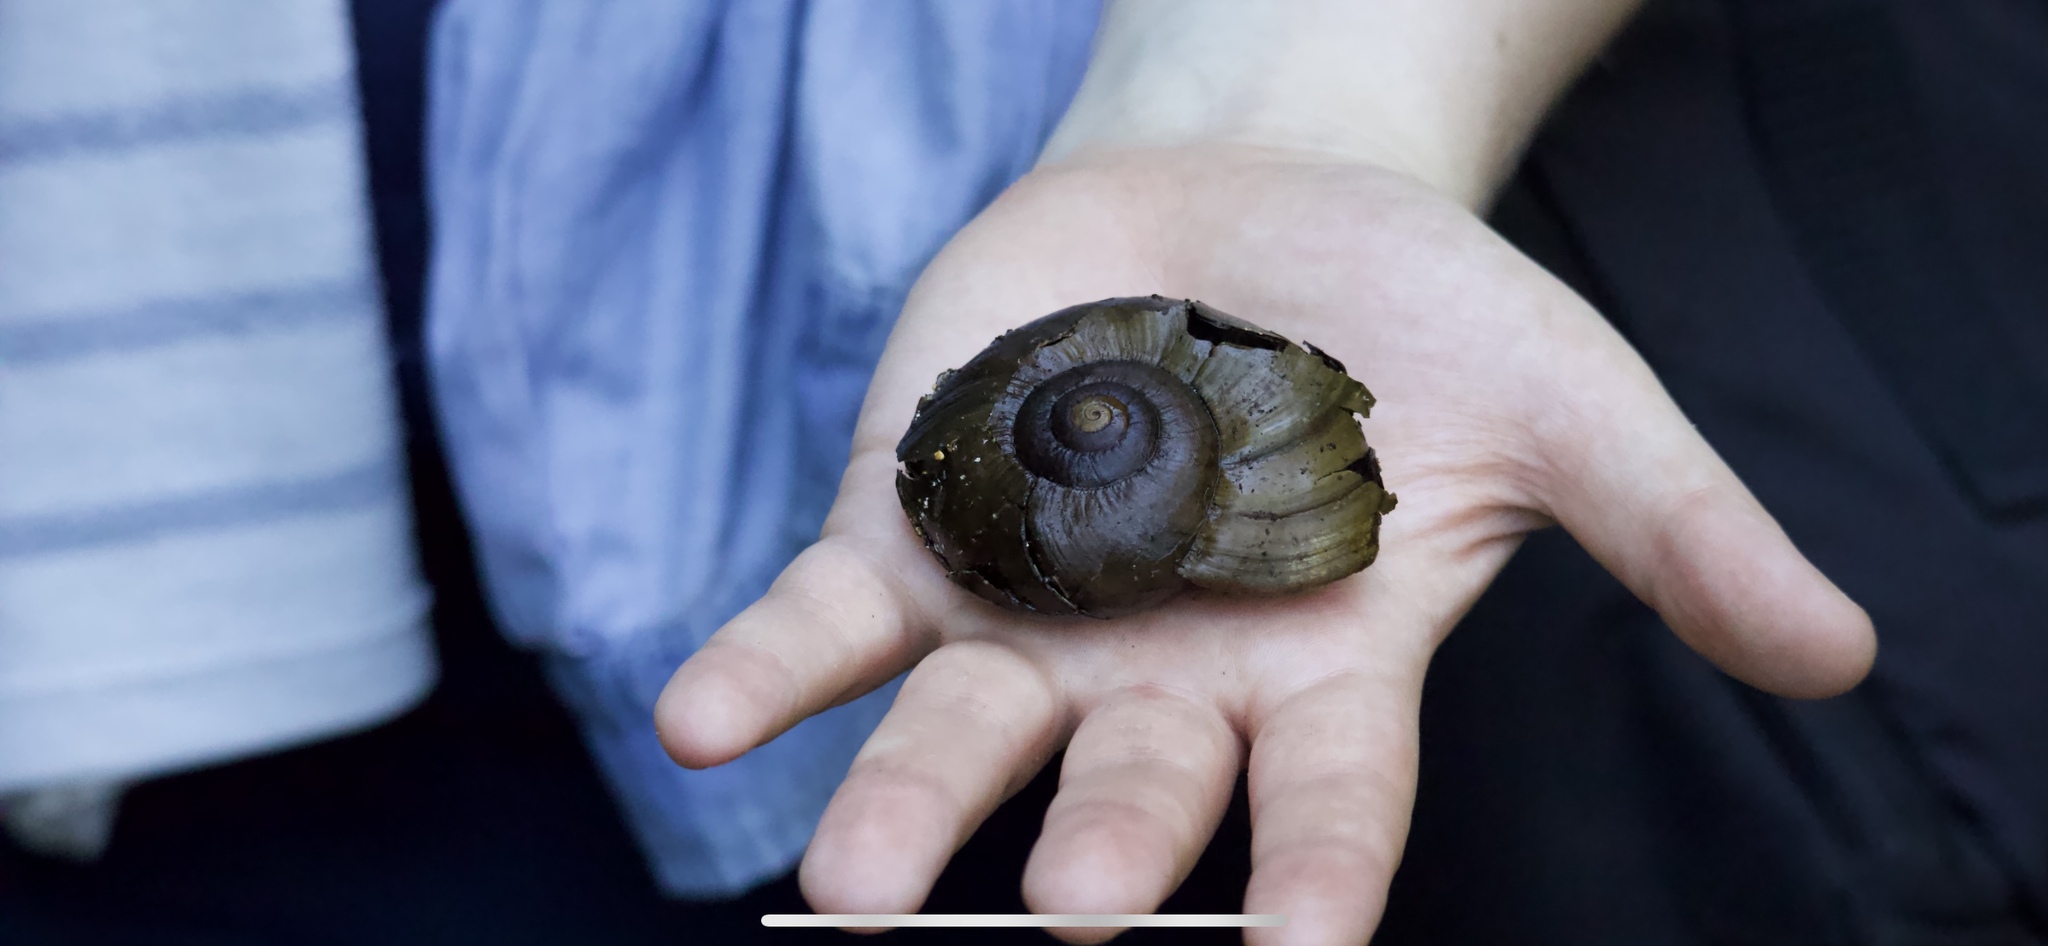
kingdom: Animalia
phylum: Mollusca
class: Gastropoda
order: Stylommatophora
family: Rhytididae
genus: Powelliphanta
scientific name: Powelliphanta hochstetteri
